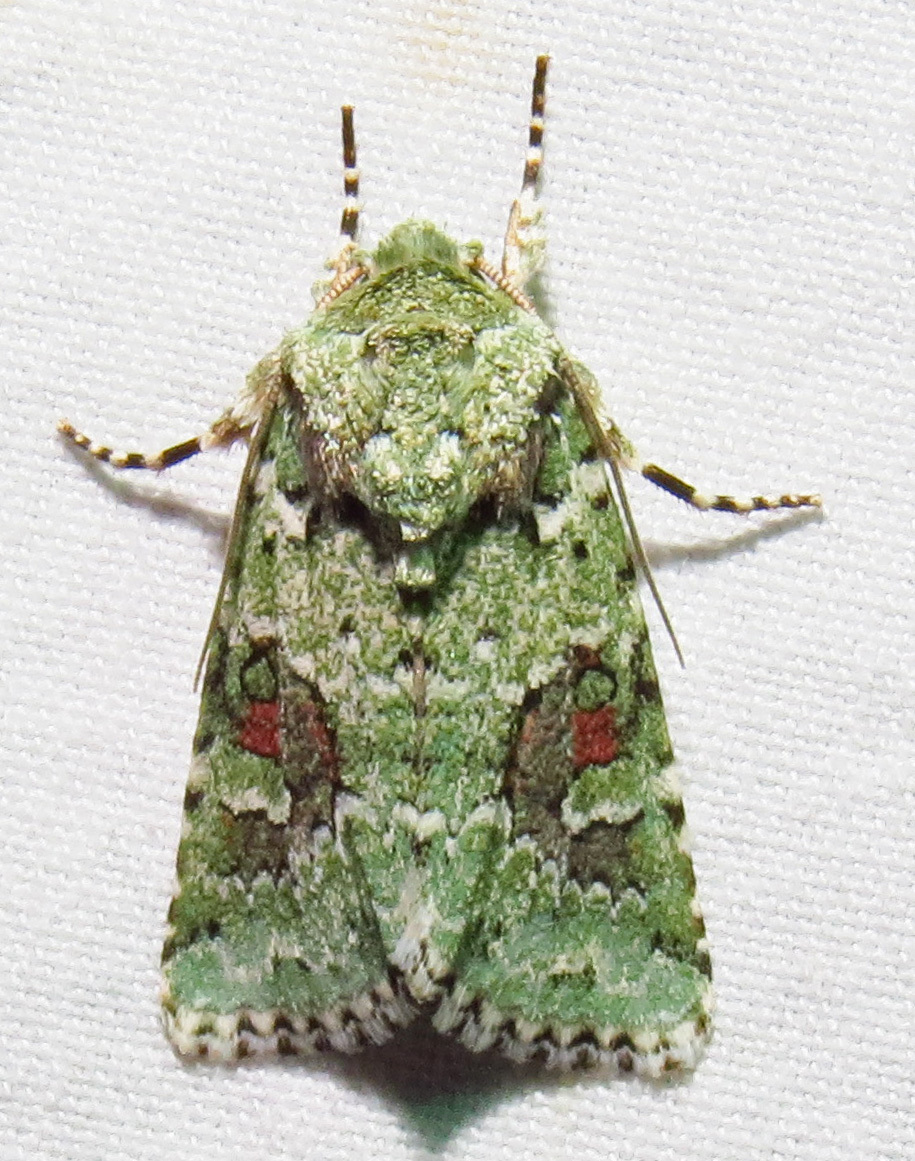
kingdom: Animalia
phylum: Arthropoda
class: Insecta
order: Lepidoptera
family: Noctuidae
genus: Lacinipolia
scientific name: Lacinipolia laudabilis
